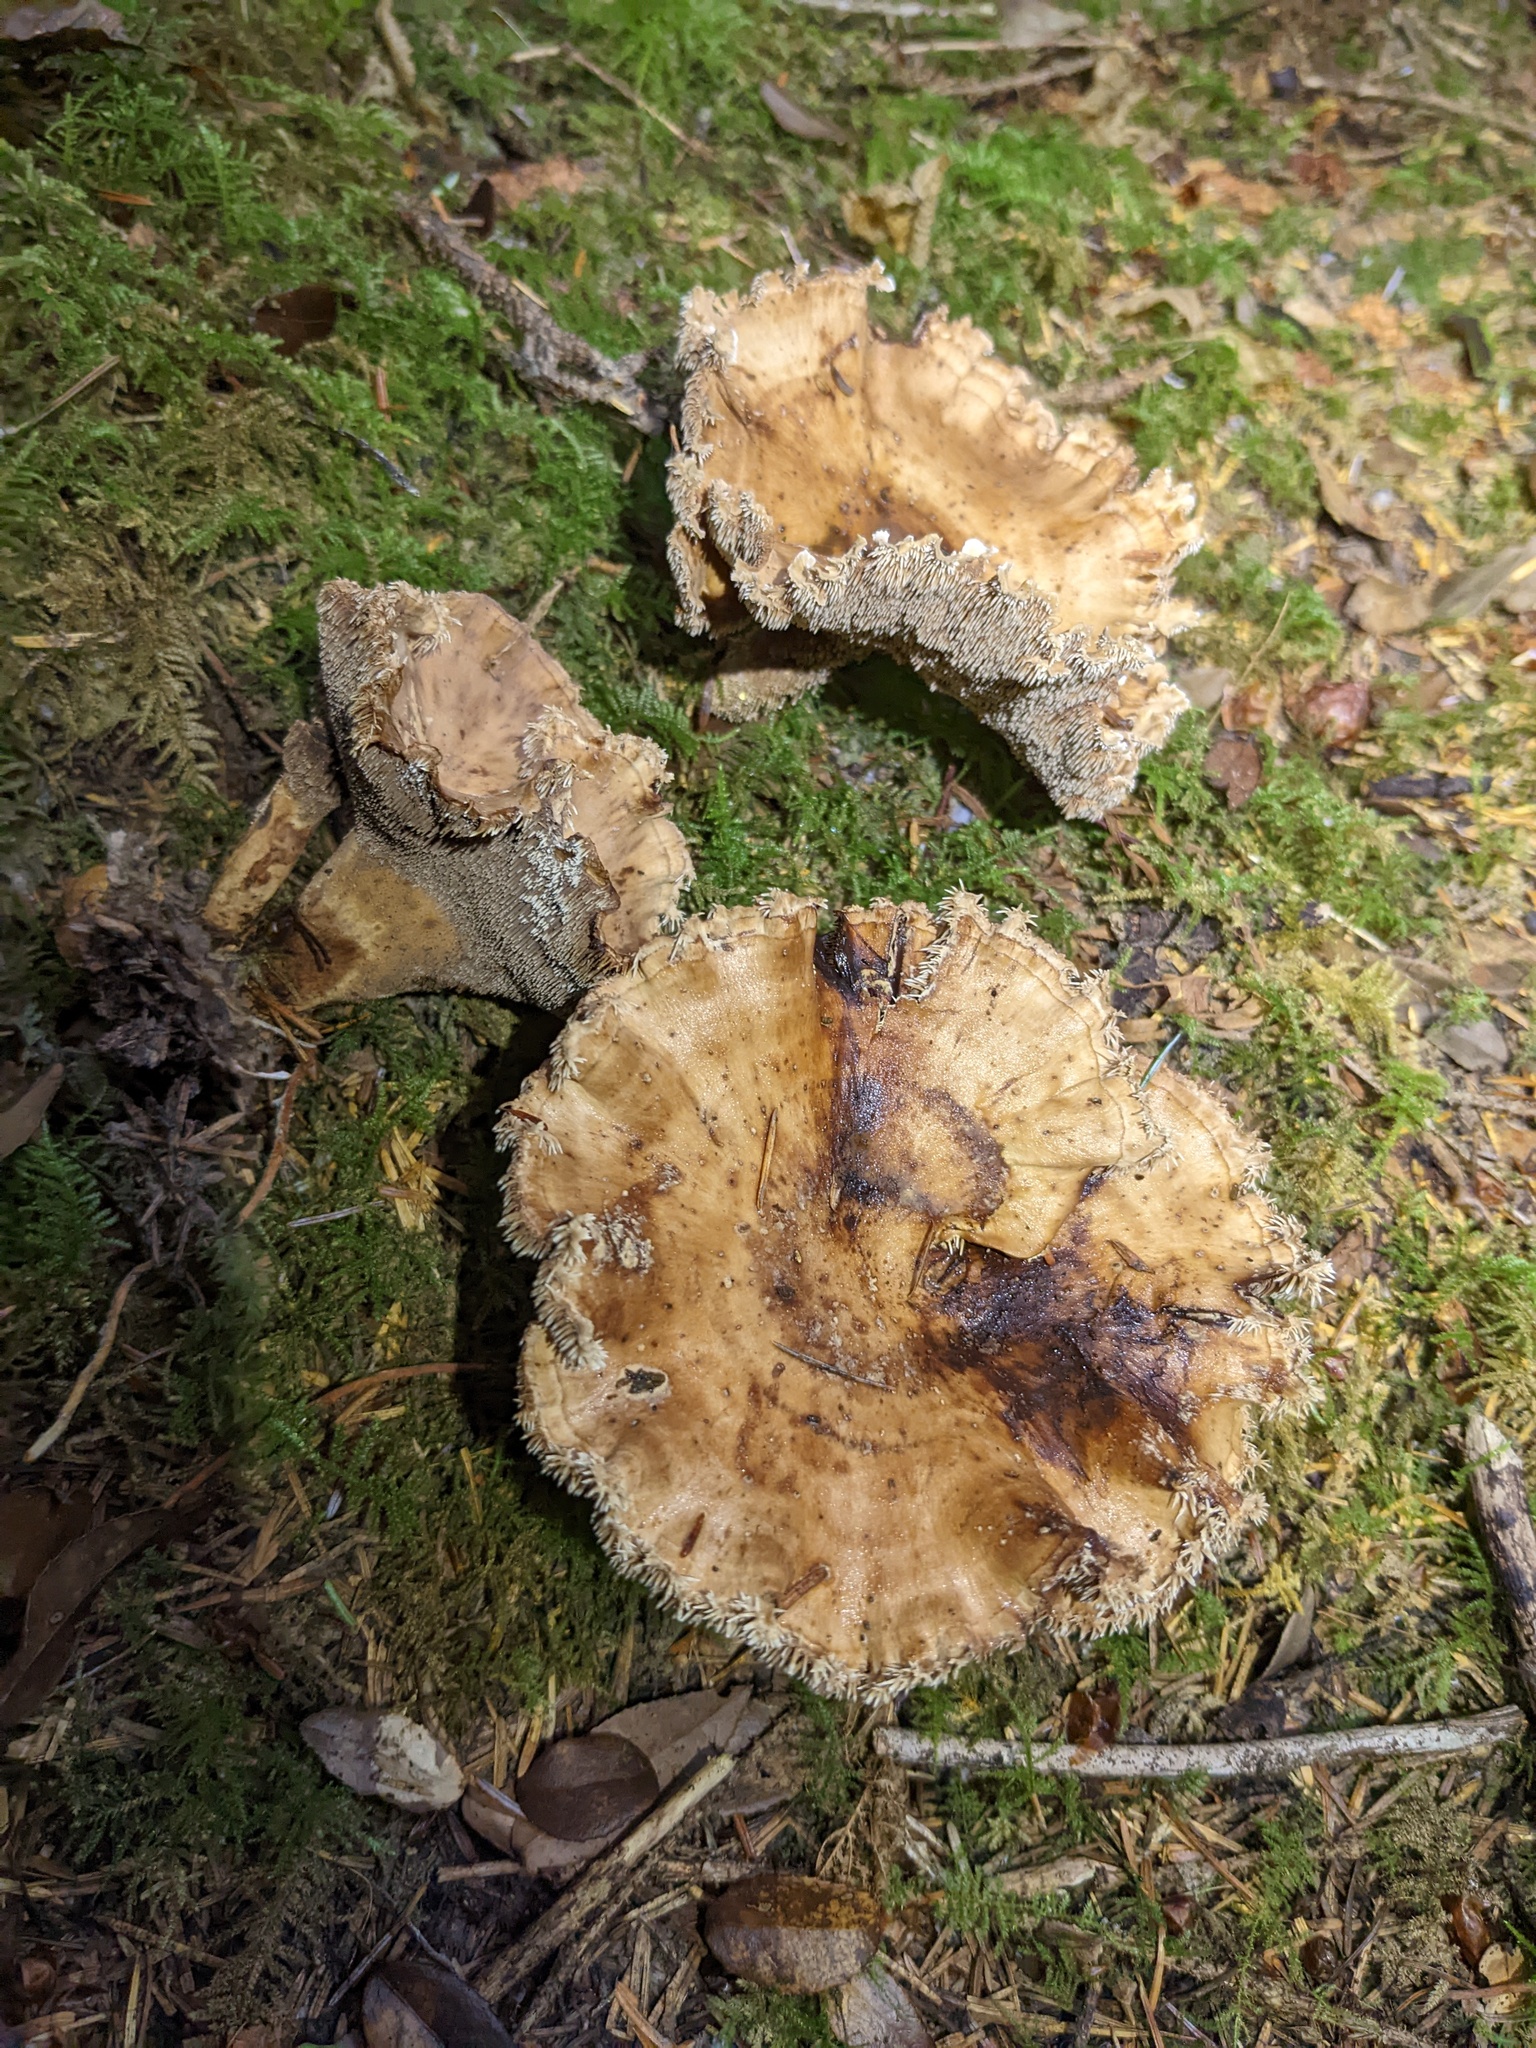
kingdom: Fungi
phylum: Basidiomycota
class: Agaricomycetes
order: Thelephorales
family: Bankeraceae
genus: Sarcodon
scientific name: Sarcodon stereosarcinon
